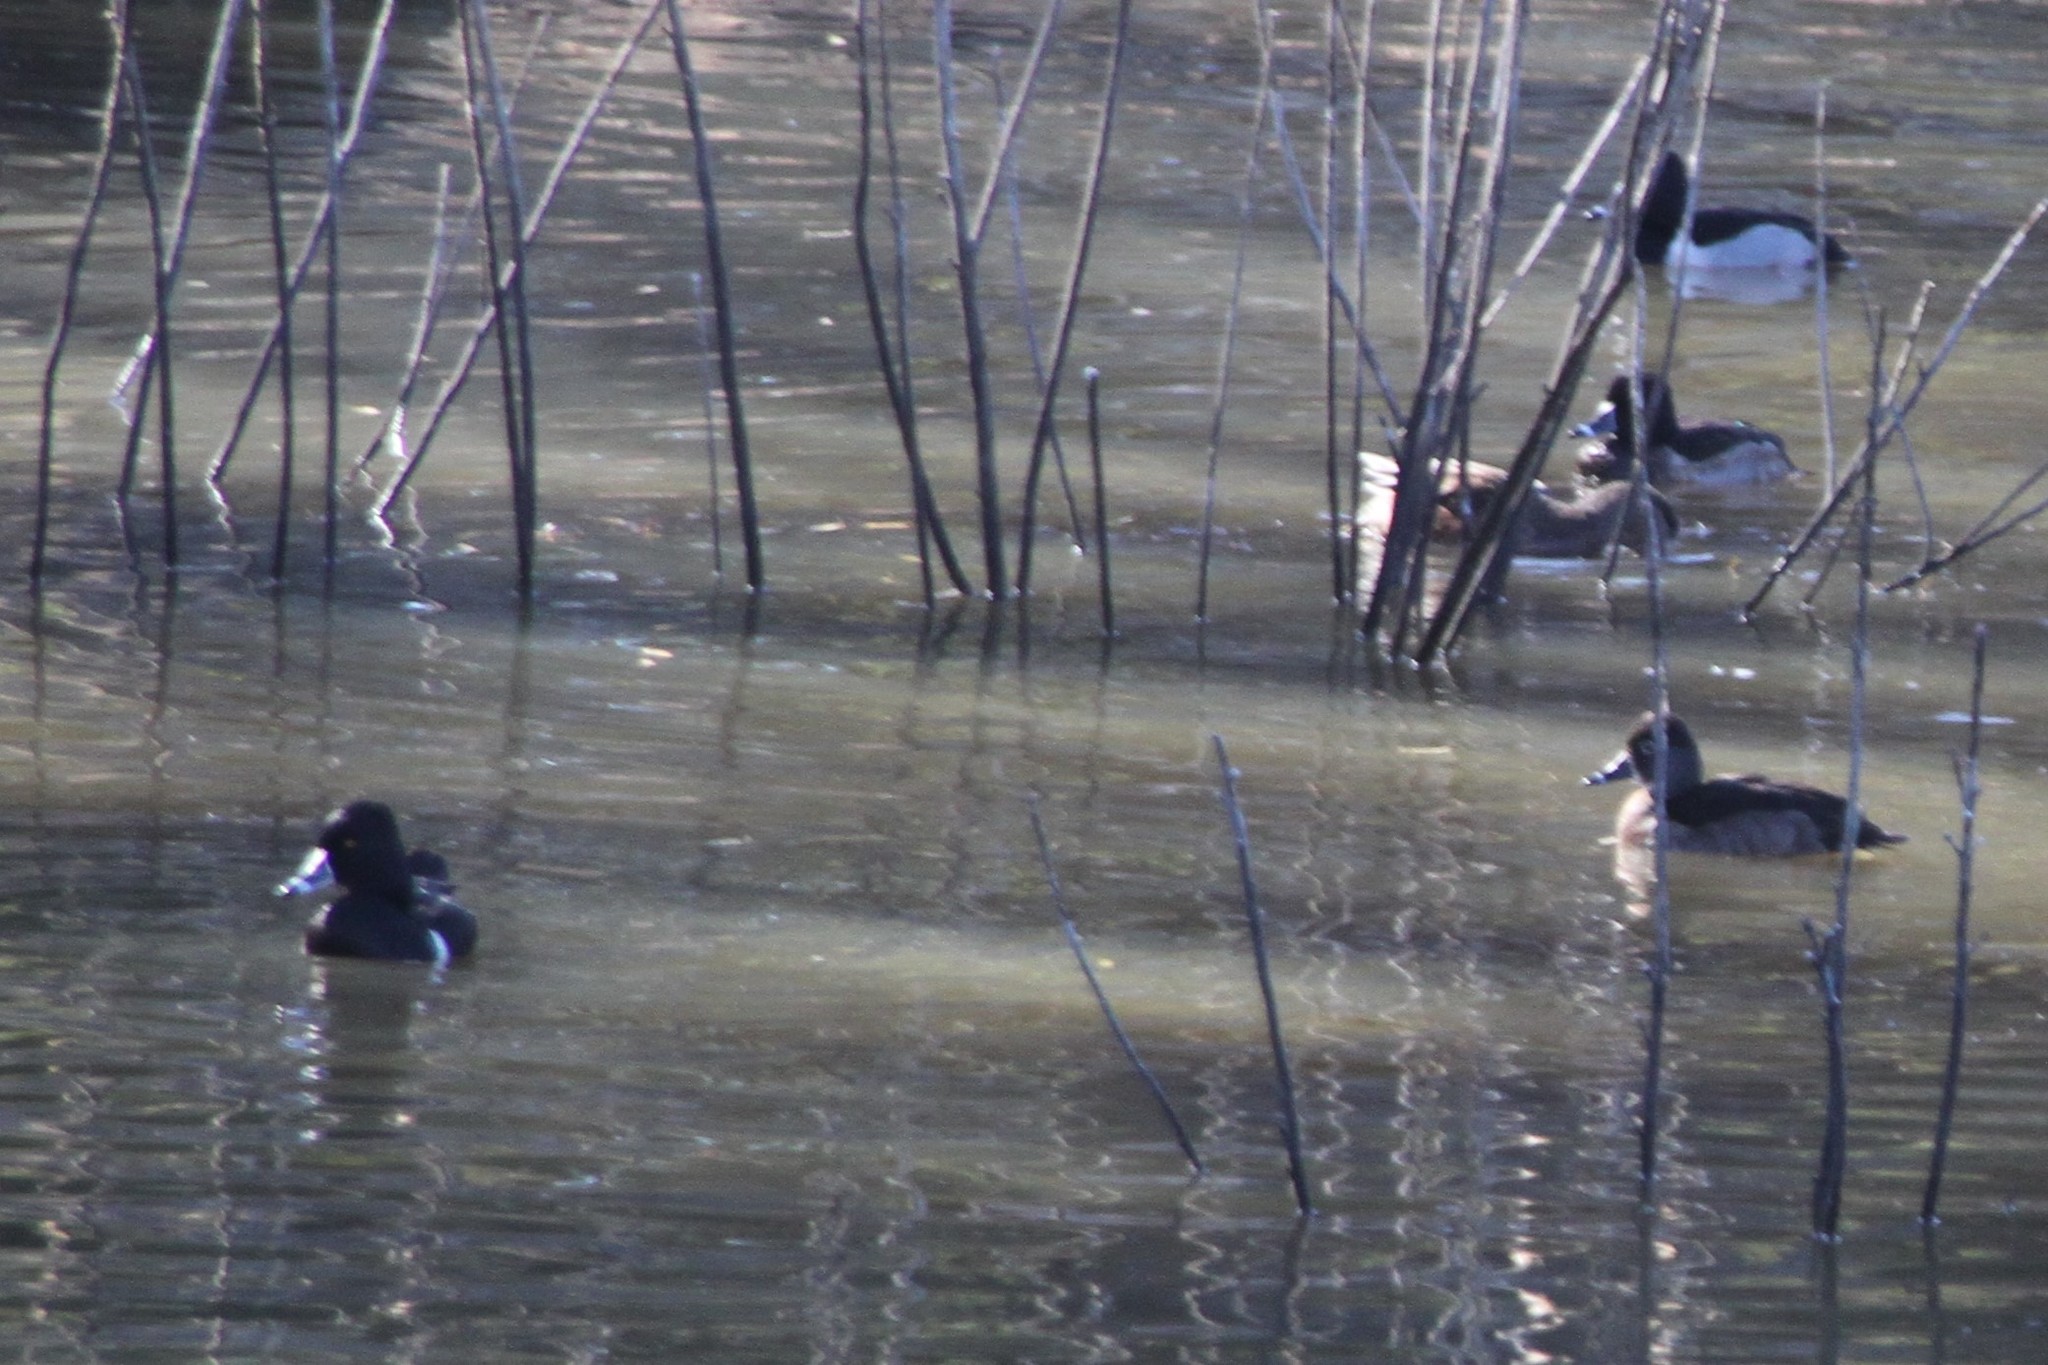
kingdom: Animalia
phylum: Chordata
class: Aves
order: Anseriformes
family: Anatidae
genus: Aythya
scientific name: Aythya collaris
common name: Ring-necked duck
